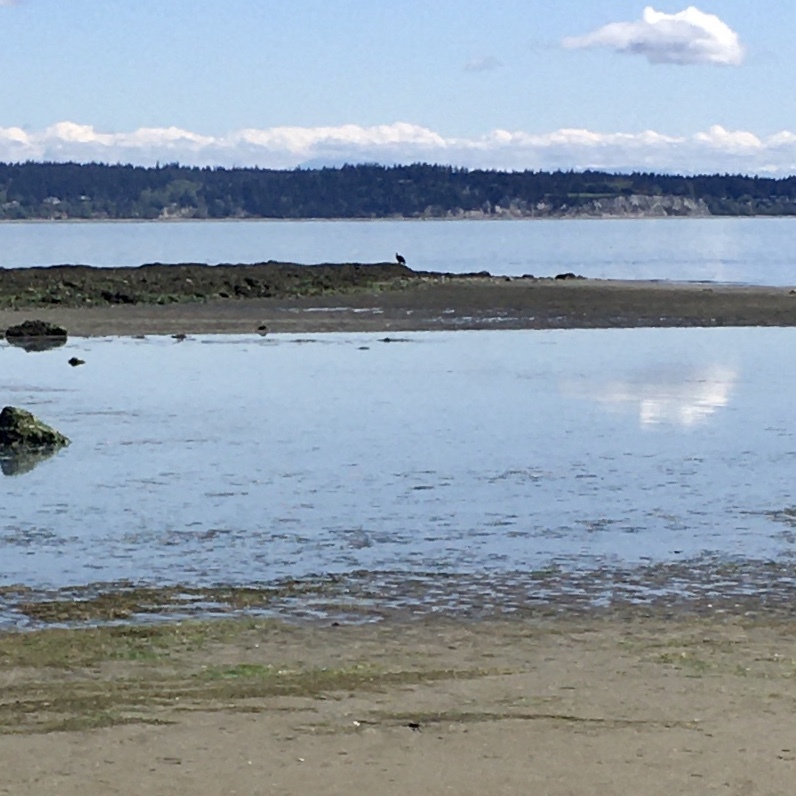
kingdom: Animalia
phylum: Chordata
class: Aves
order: Accipitriformes
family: Accipitridae
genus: Haliaeetus
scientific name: Haliaeetus leucocephalus
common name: Bald eagle
